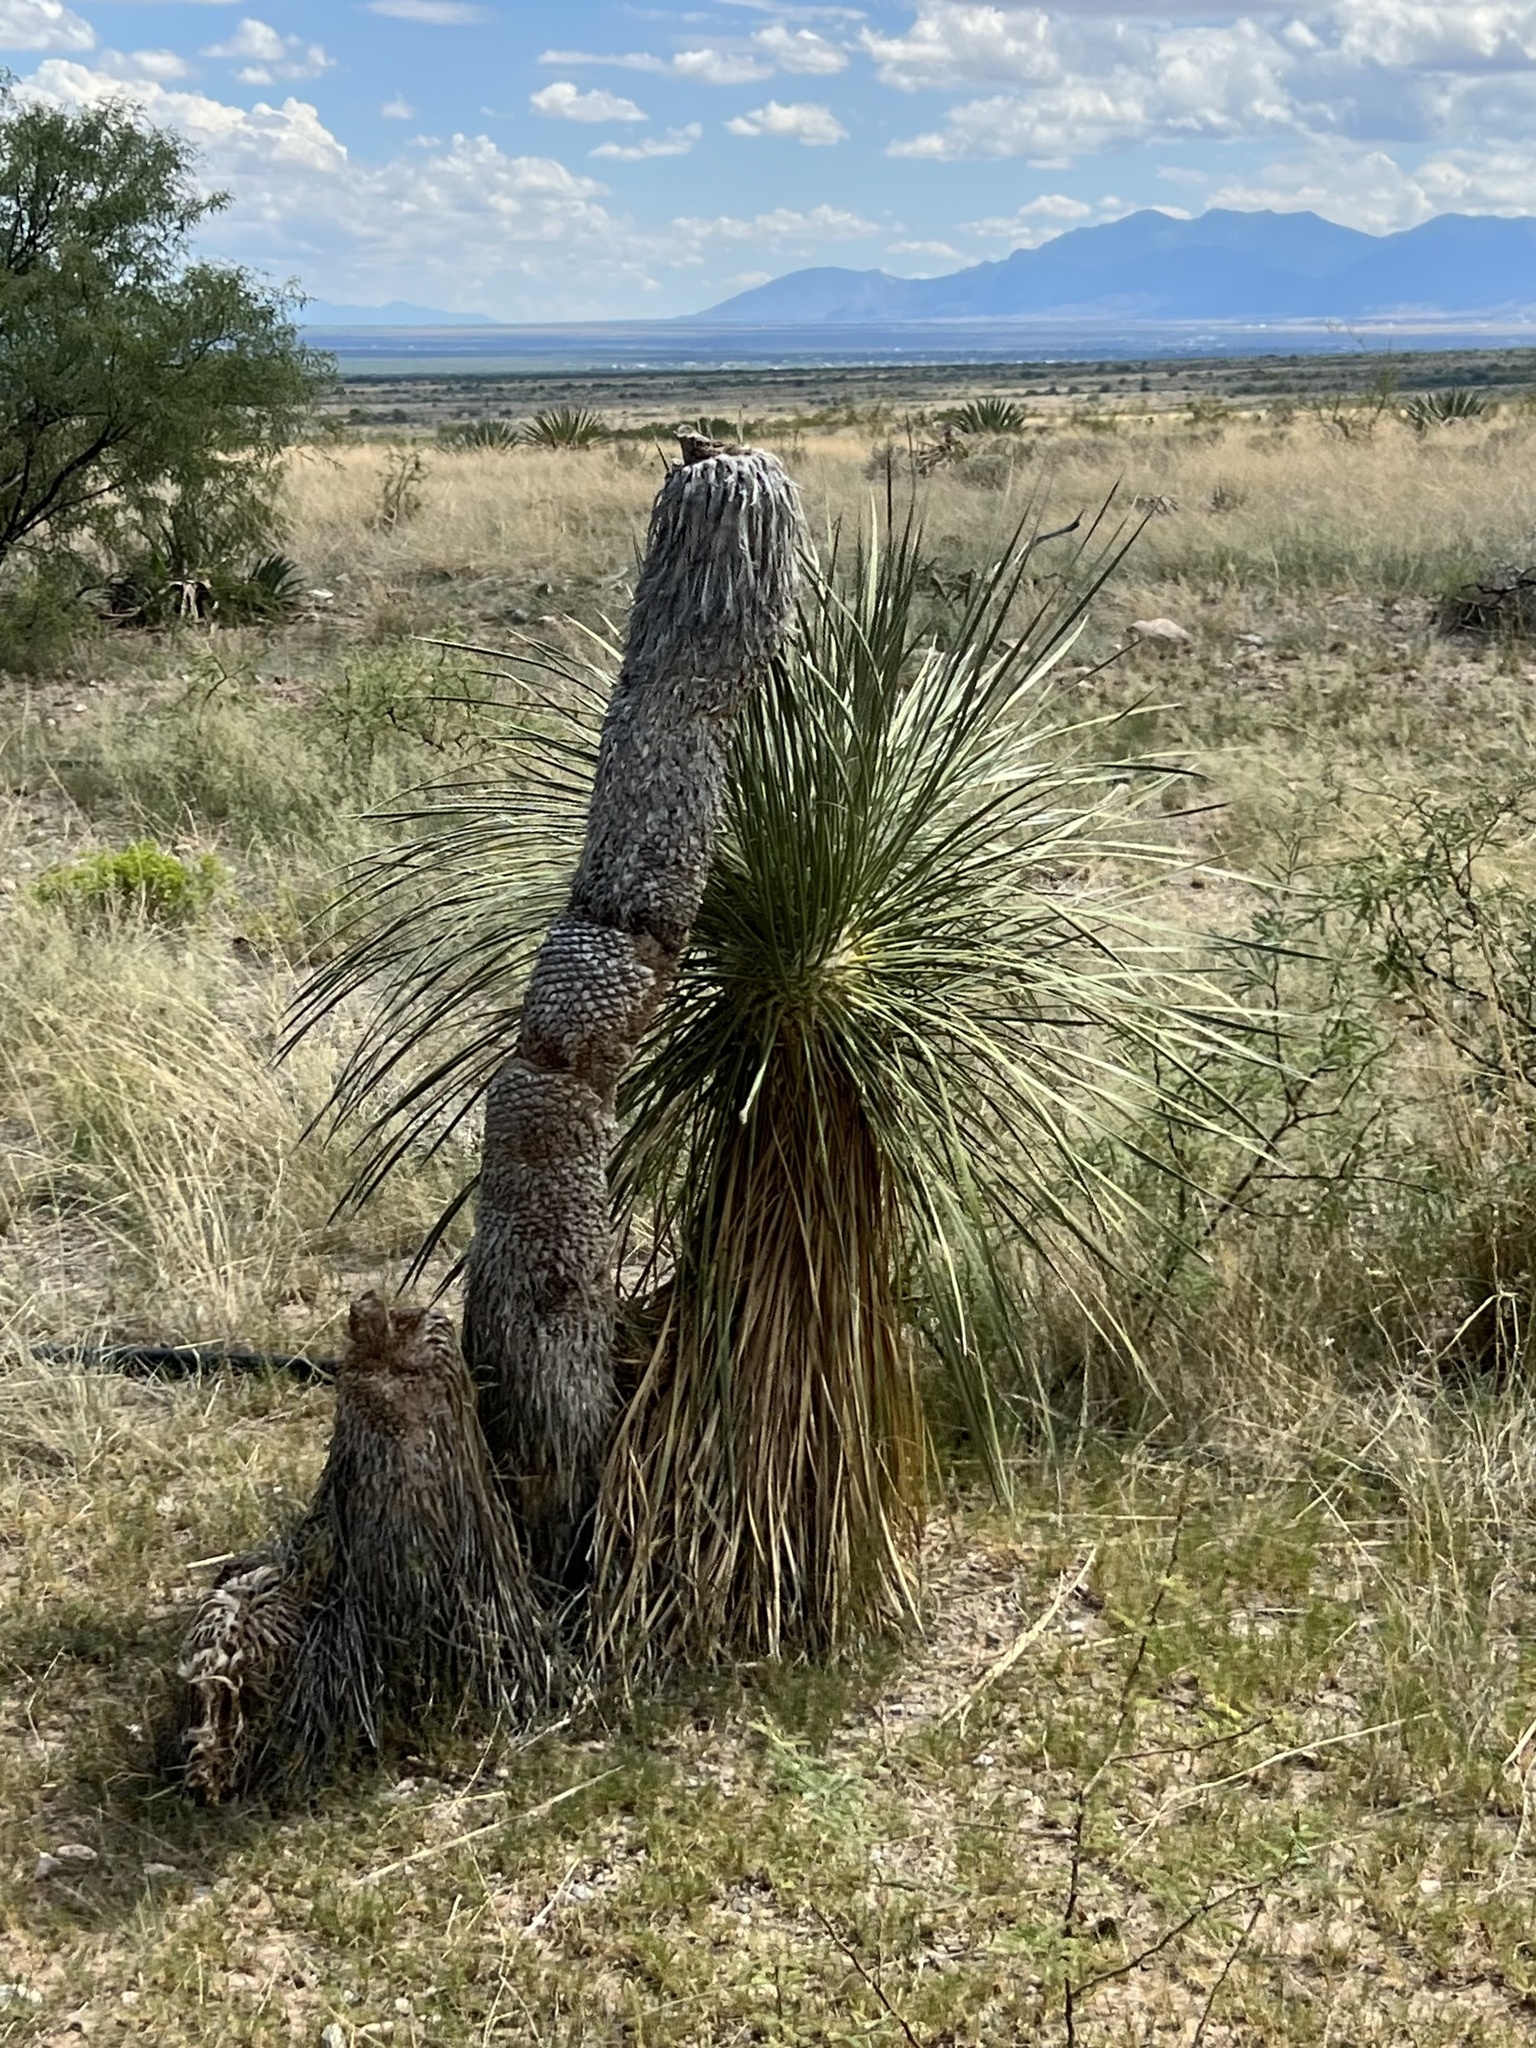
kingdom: Plantae
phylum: Tracheophyta
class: Liliopsida
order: Asparagales
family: Asparagaceae
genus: Yucca
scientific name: Yucca elata
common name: Palmella
